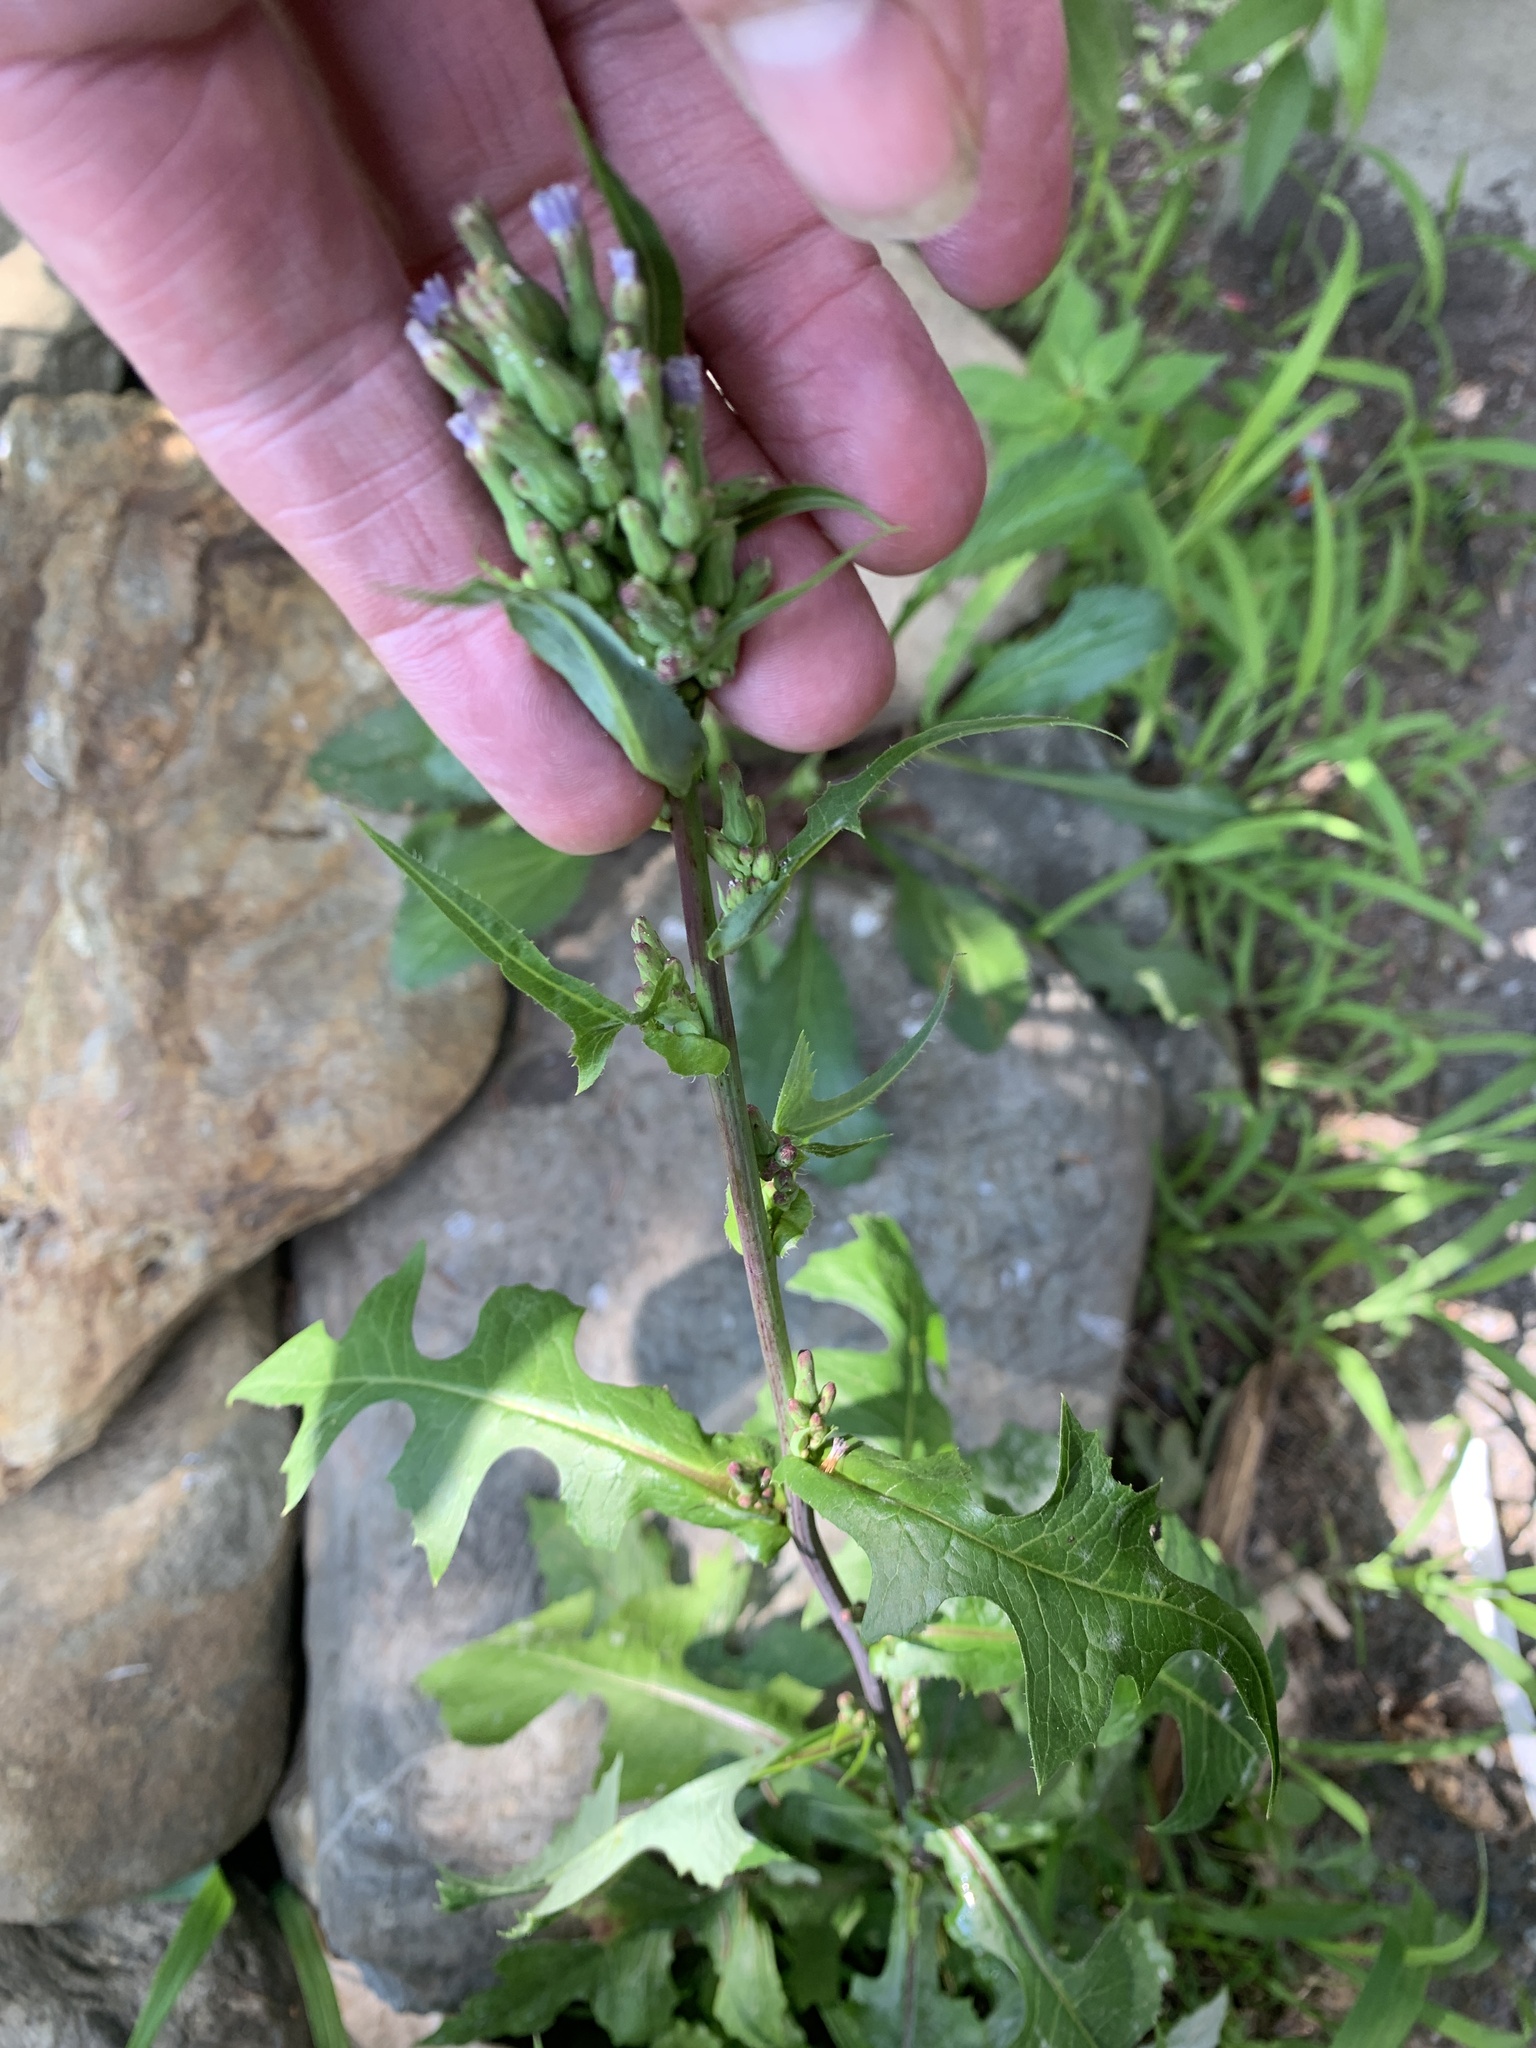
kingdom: Plantae
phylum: Tracheophyta
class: Magnoliopsida
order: Asterales
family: Asteraceae
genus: Lactuca
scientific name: Lactuca biennis
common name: Blue wood lettuce
